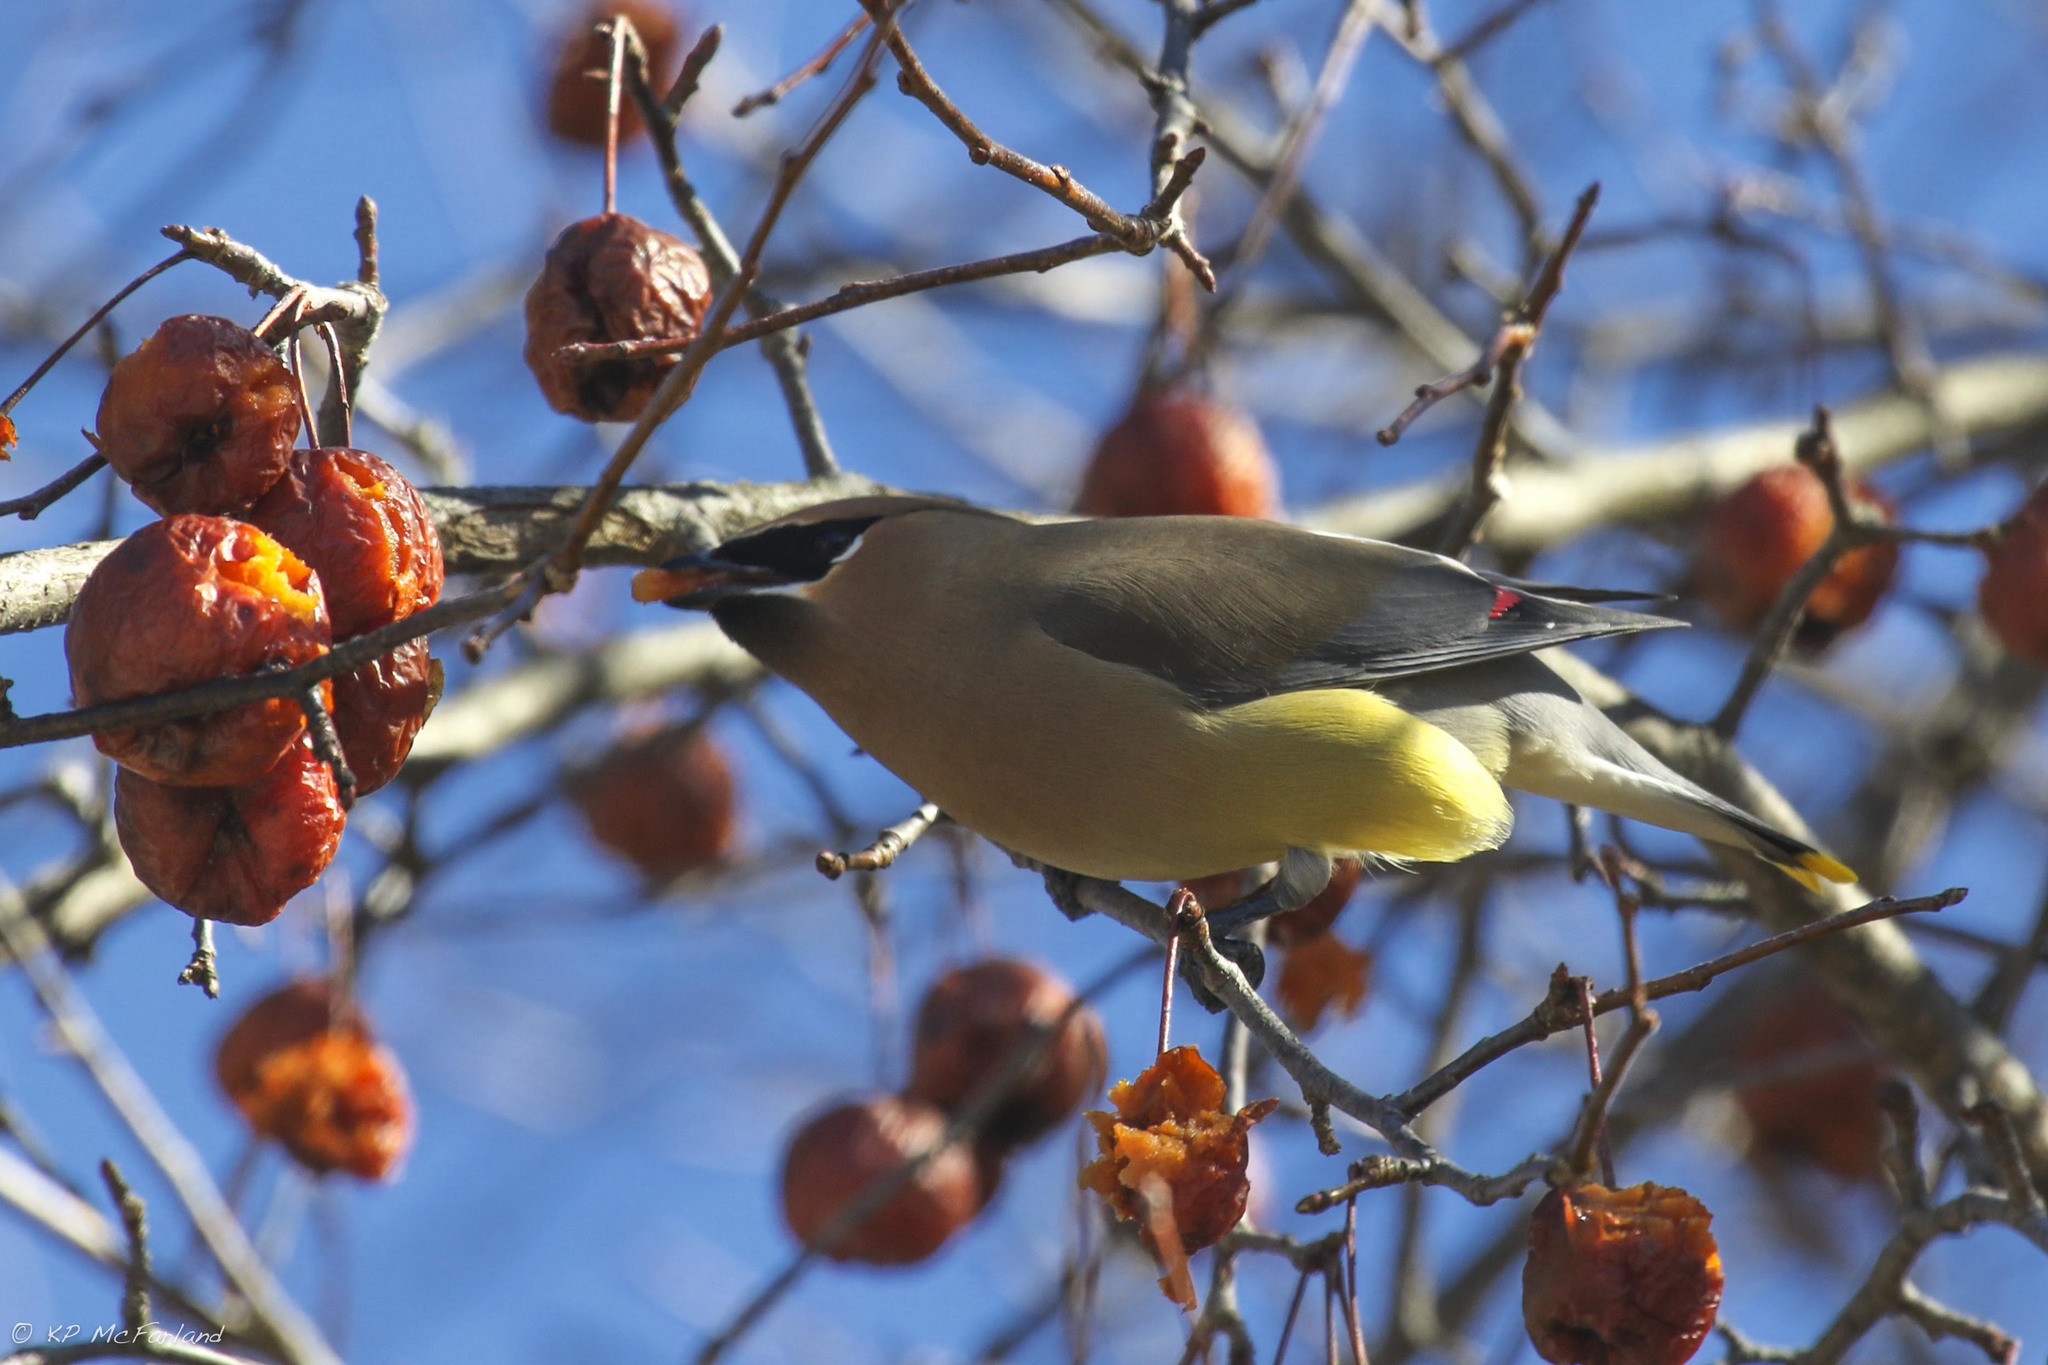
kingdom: Animalia
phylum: Chordata
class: Aves
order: Passeriformes
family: Bombycillidae
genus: Bombycilla
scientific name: Bombycilla cedrorum
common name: Cedar waxwing
